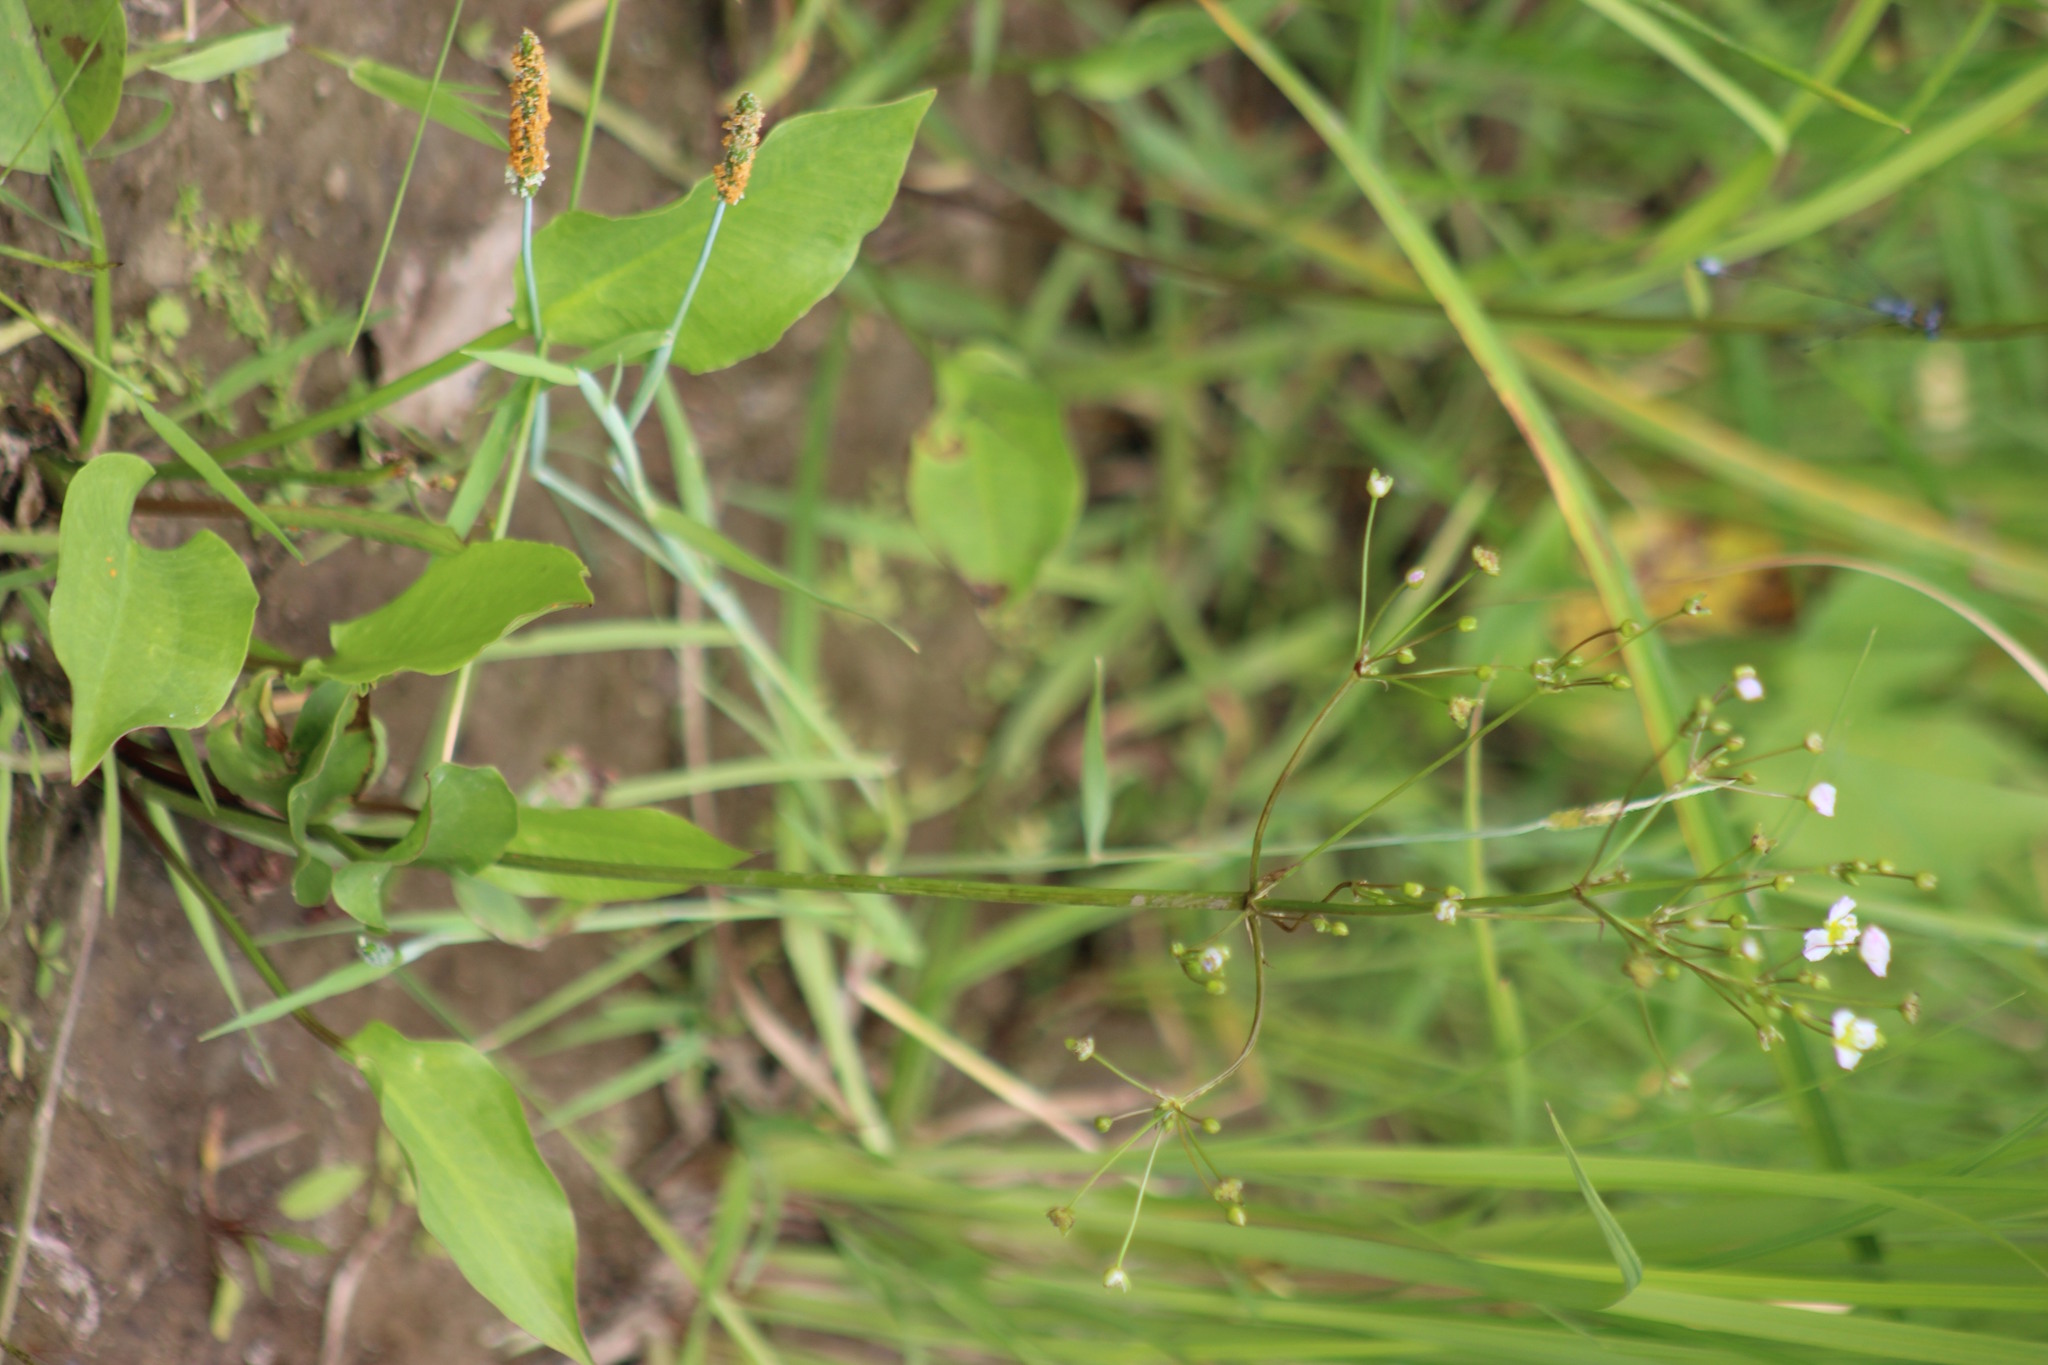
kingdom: Plantae
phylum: Tracheophyta
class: Liliopsida
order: Alismatales
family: Alismataceae
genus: Alisma
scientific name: Alisma plantago-aquatica
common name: Water-plantain
